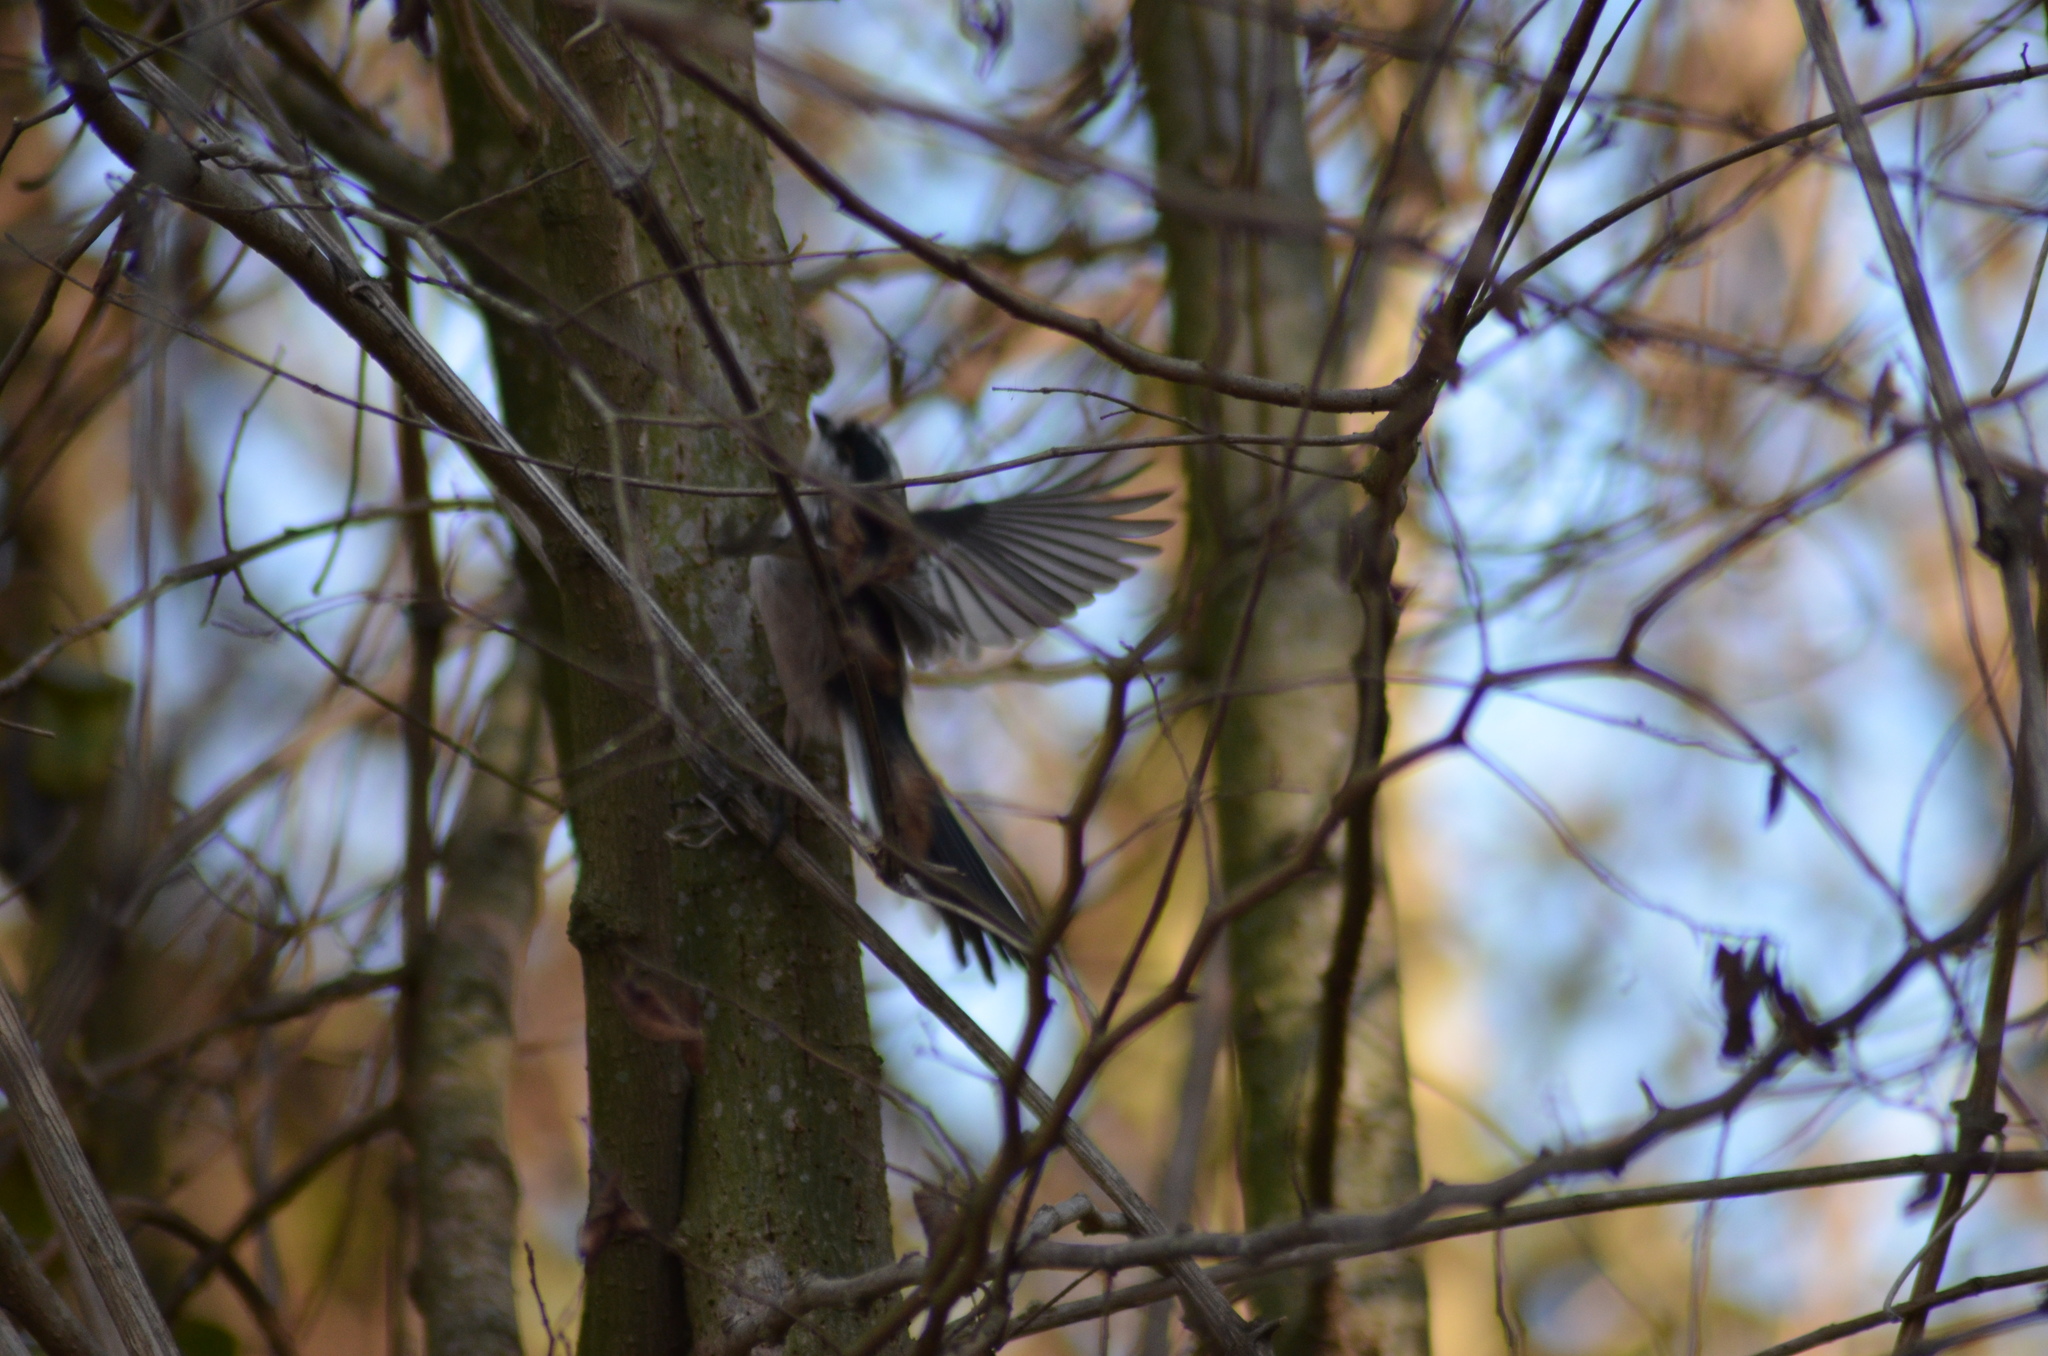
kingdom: Animalia
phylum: Chordata
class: Aves
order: Passeriformes
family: Aegithalidae
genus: Aegithalos
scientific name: Aegithalos caudatus
